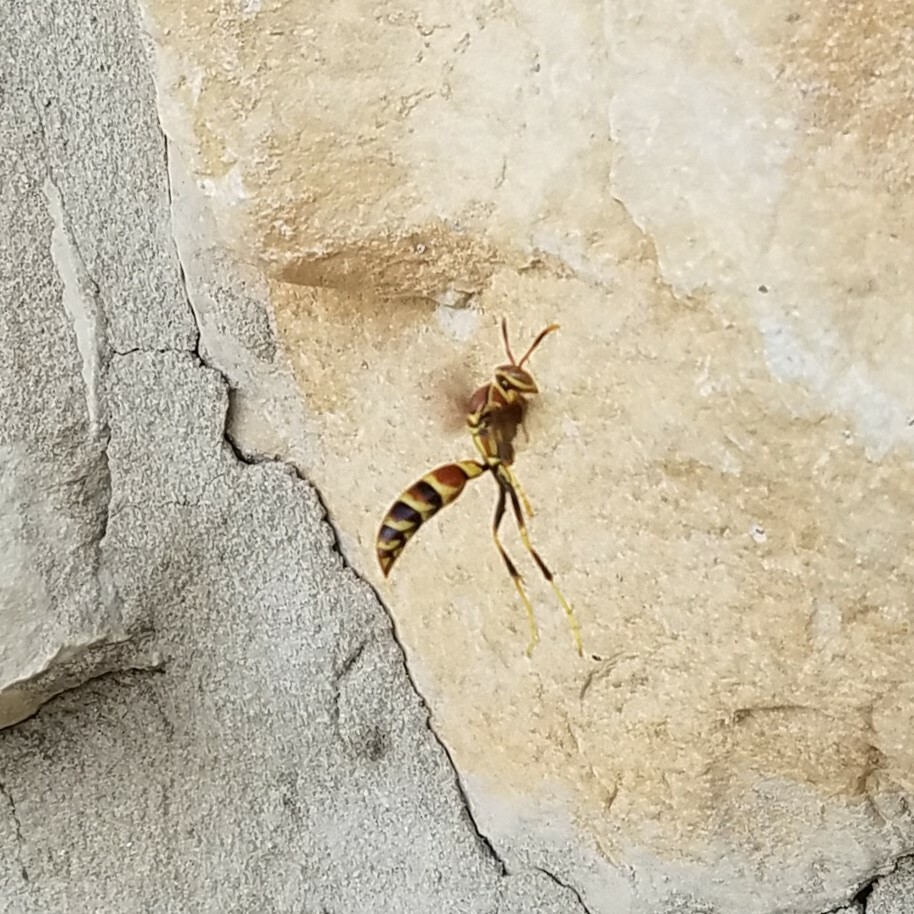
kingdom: Animalia
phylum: Arthropoda
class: Insecta
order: Hymenoptera
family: Eumenidae
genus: Polistes
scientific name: Polistes exclamans
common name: Paper wasp
